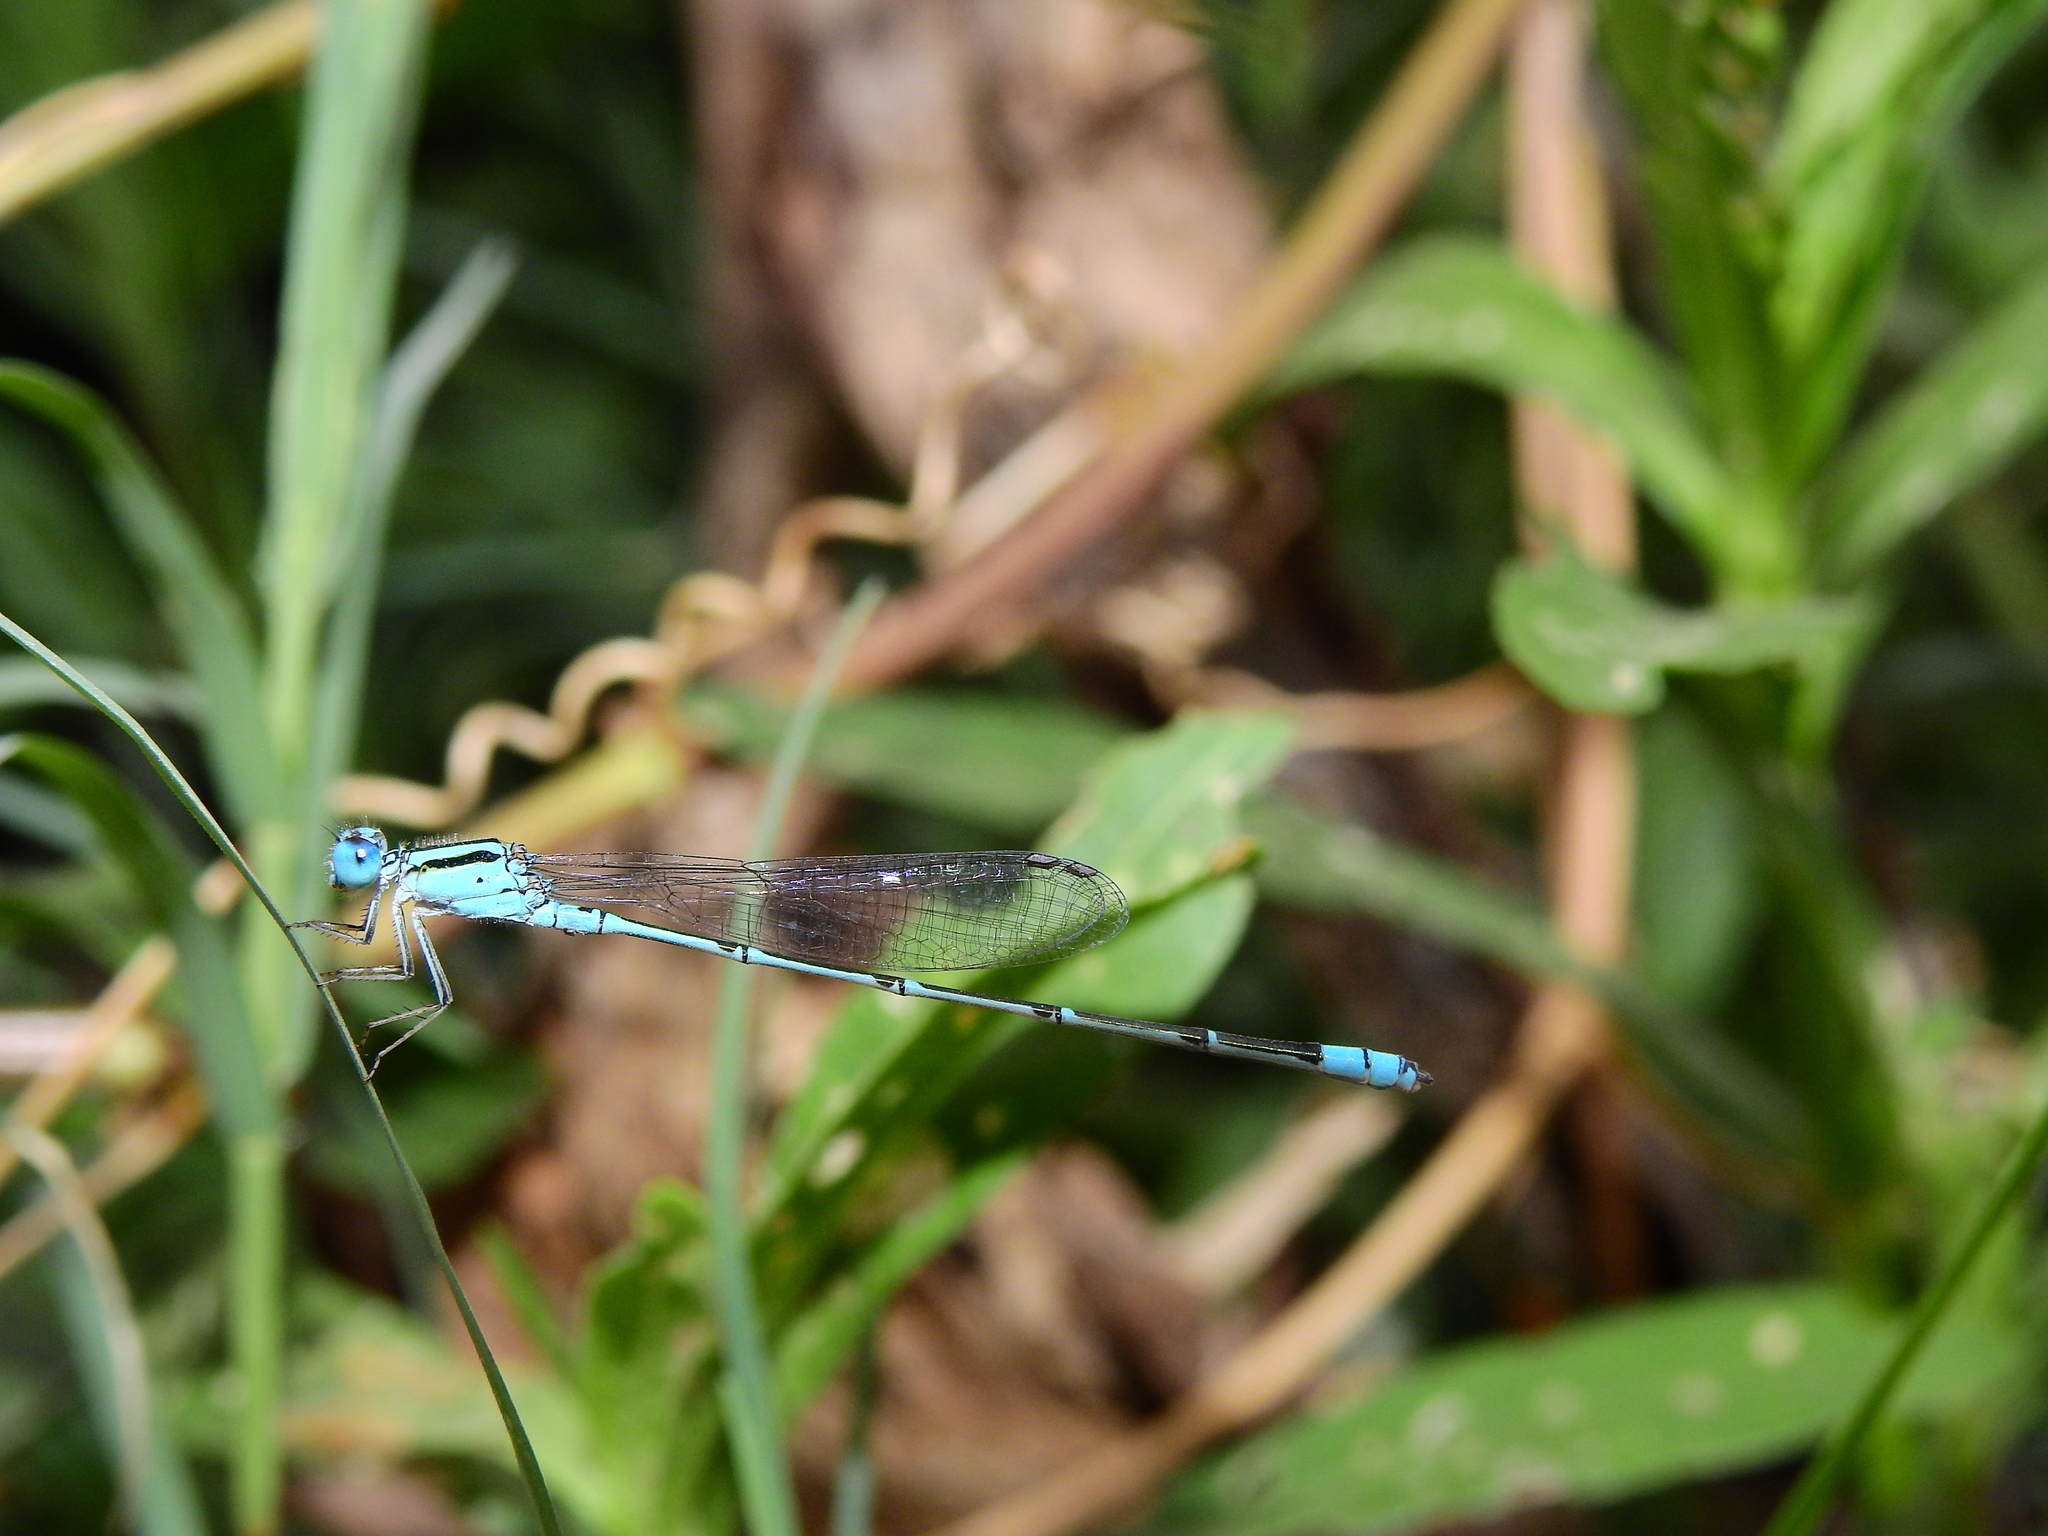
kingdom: Animalia
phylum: Arthropoda
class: Insecta
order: Odonata
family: Coenagrionidae
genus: Pseudagrion
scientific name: Pseudagrion microcephalum
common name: Blue riverdamsel
